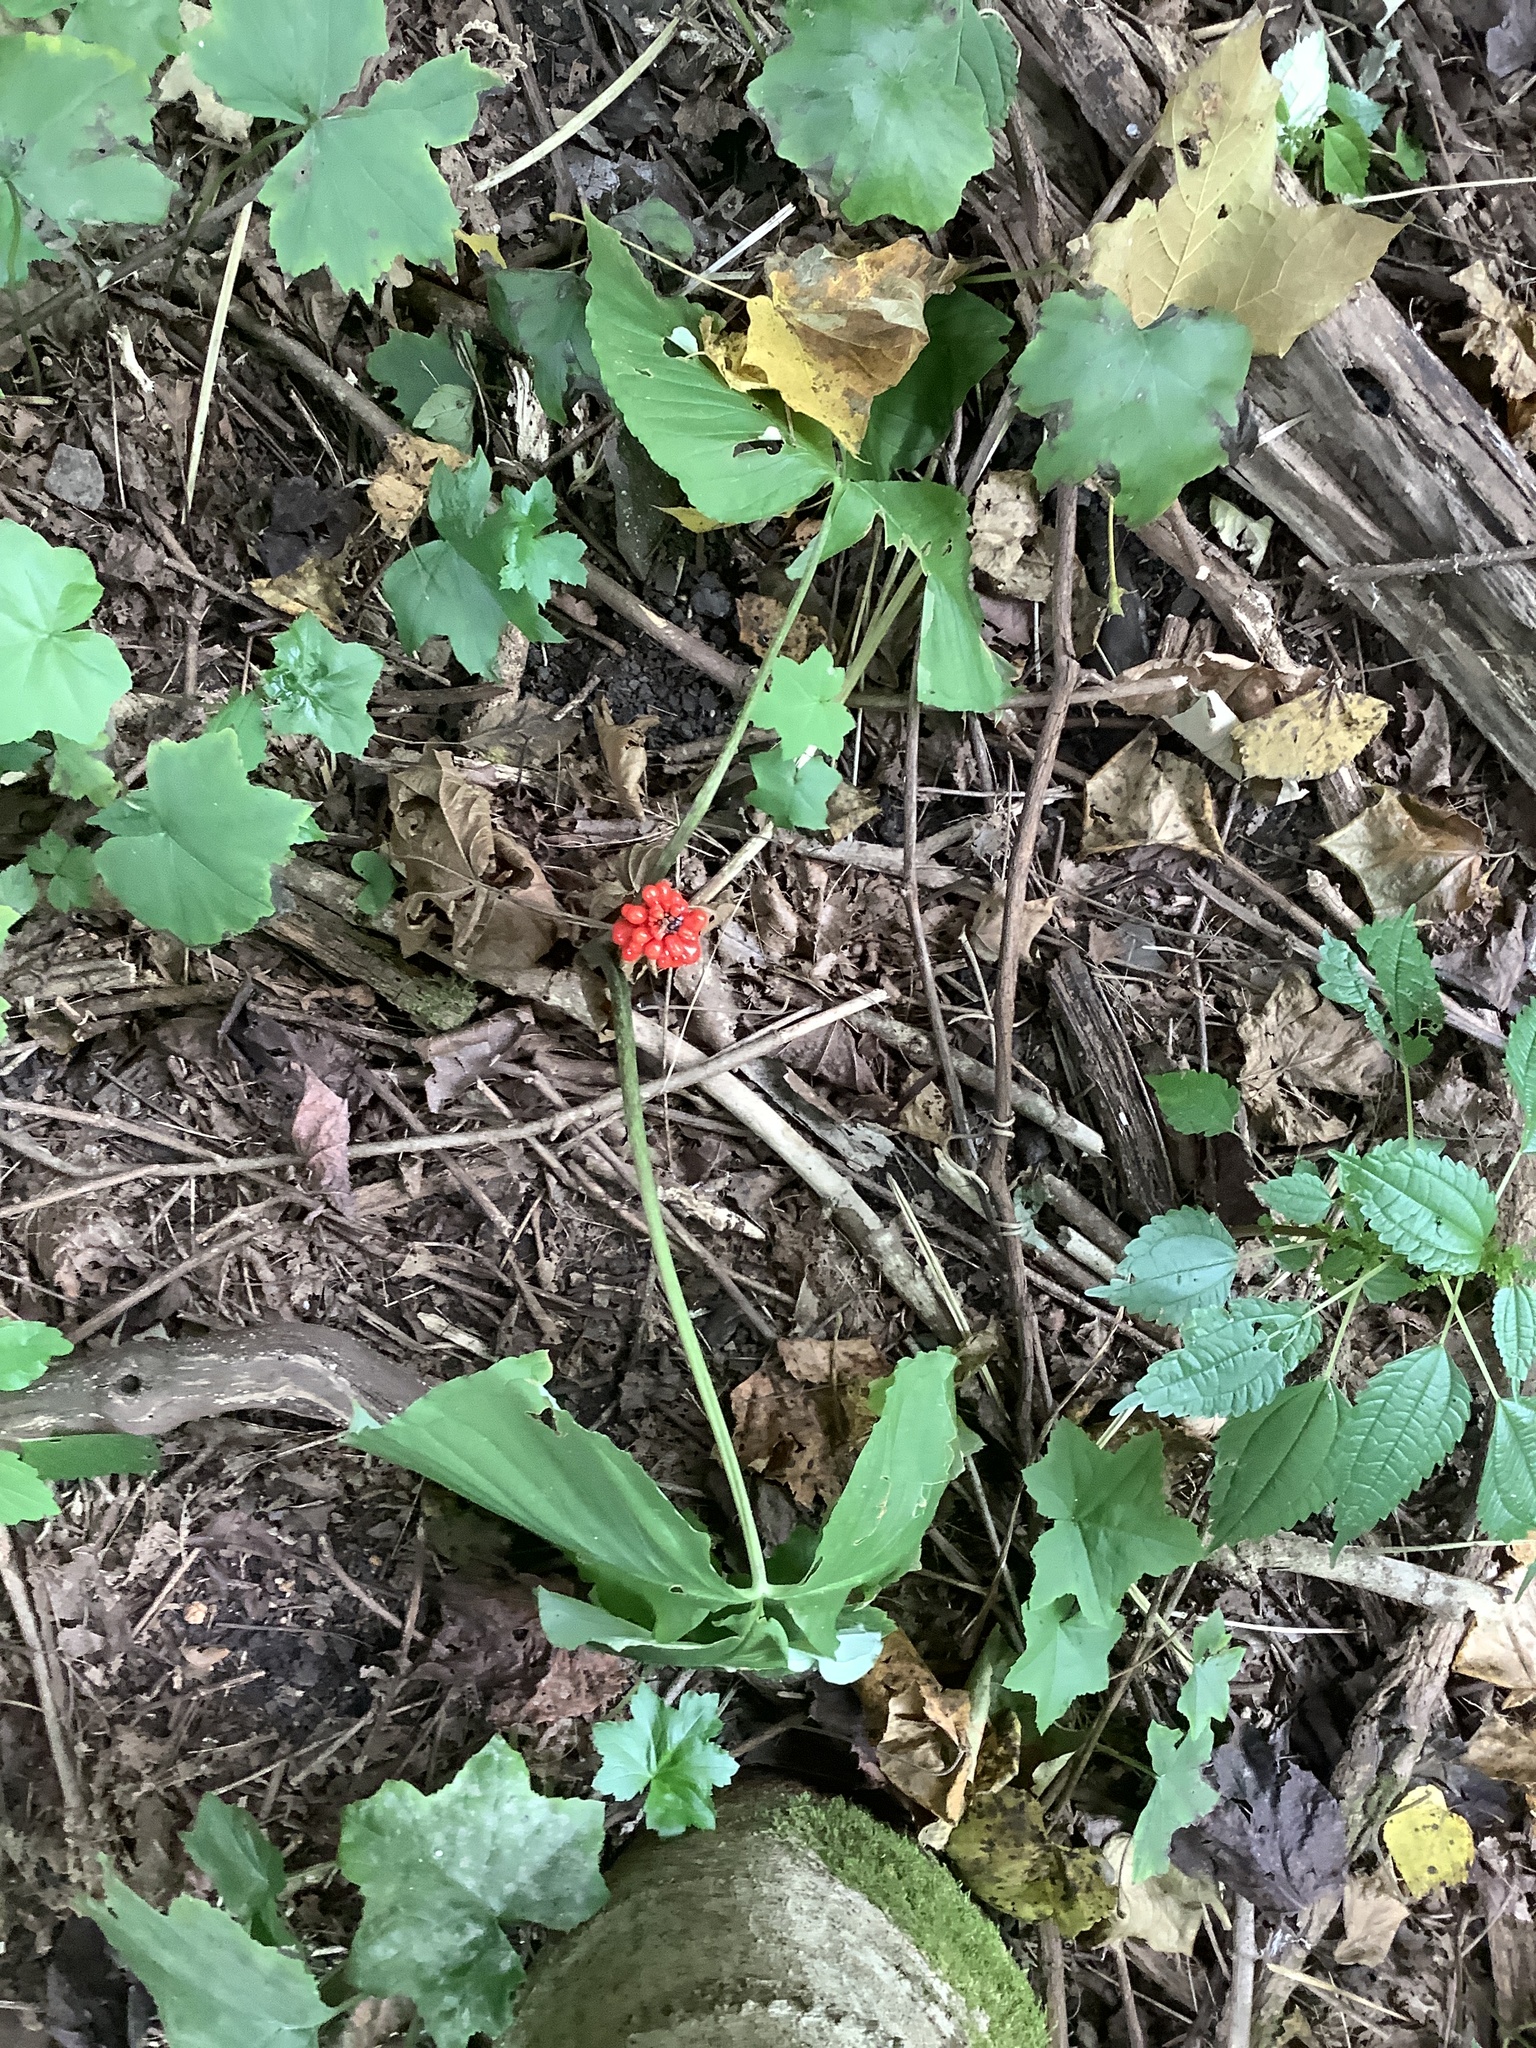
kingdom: Plantae
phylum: Tracheophyta
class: Liliopsida
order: Alismatales
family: Araceae
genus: Arisaema
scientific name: Arisaema triphyllum
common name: Jack-in-the-pulpit
